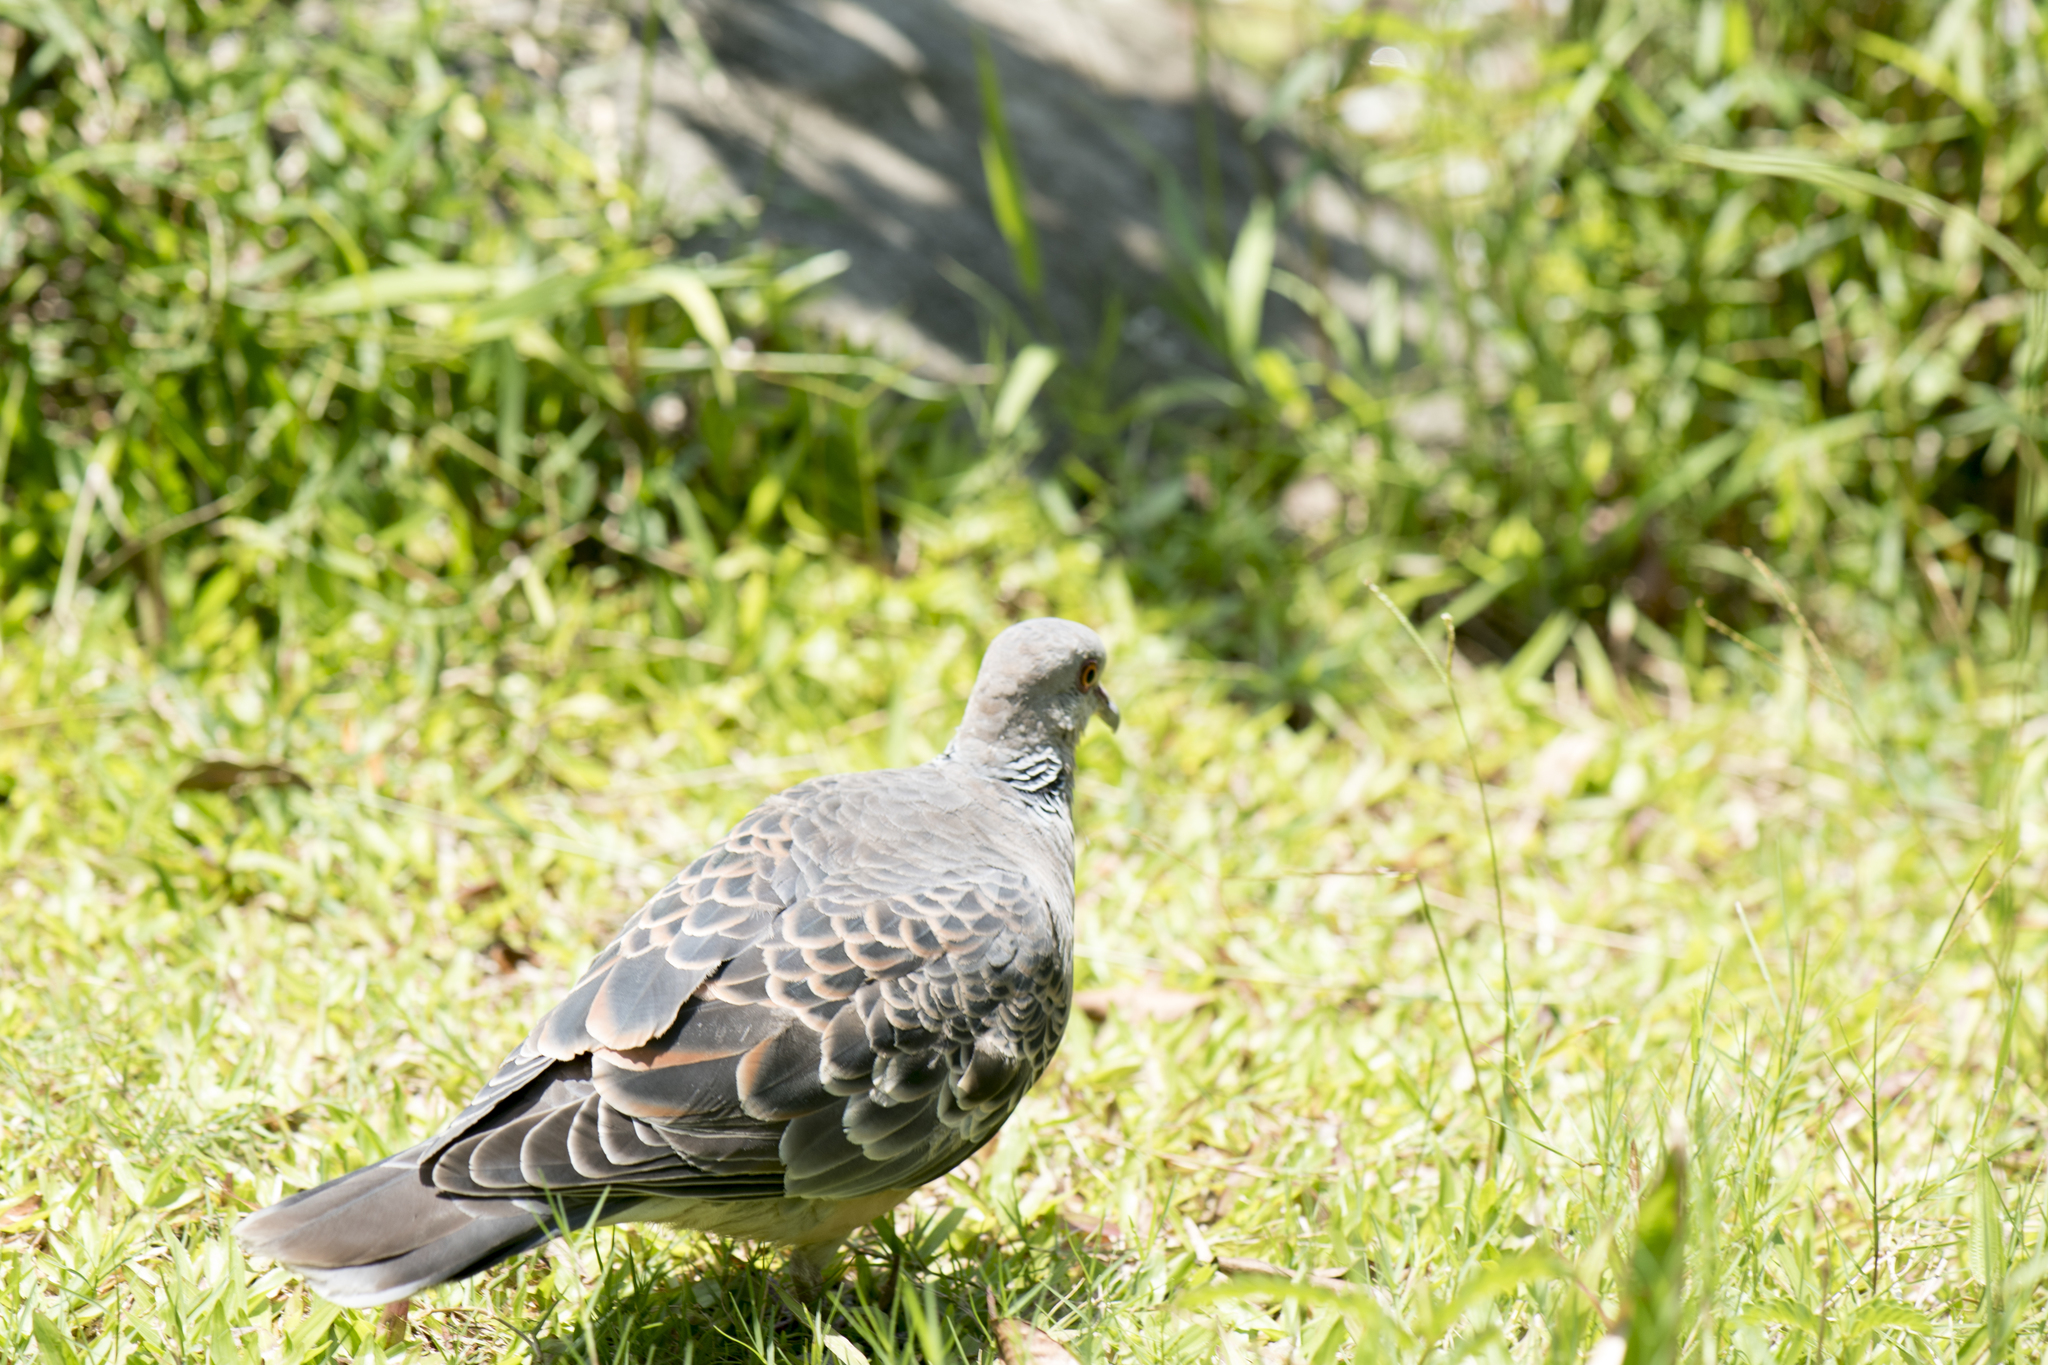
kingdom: Animalia
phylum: Chordata
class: Aves
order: Columbiformes
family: Columbidae
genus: Streptopelia
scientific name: Streptopelia orientalis
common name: Oriental turtle dove
